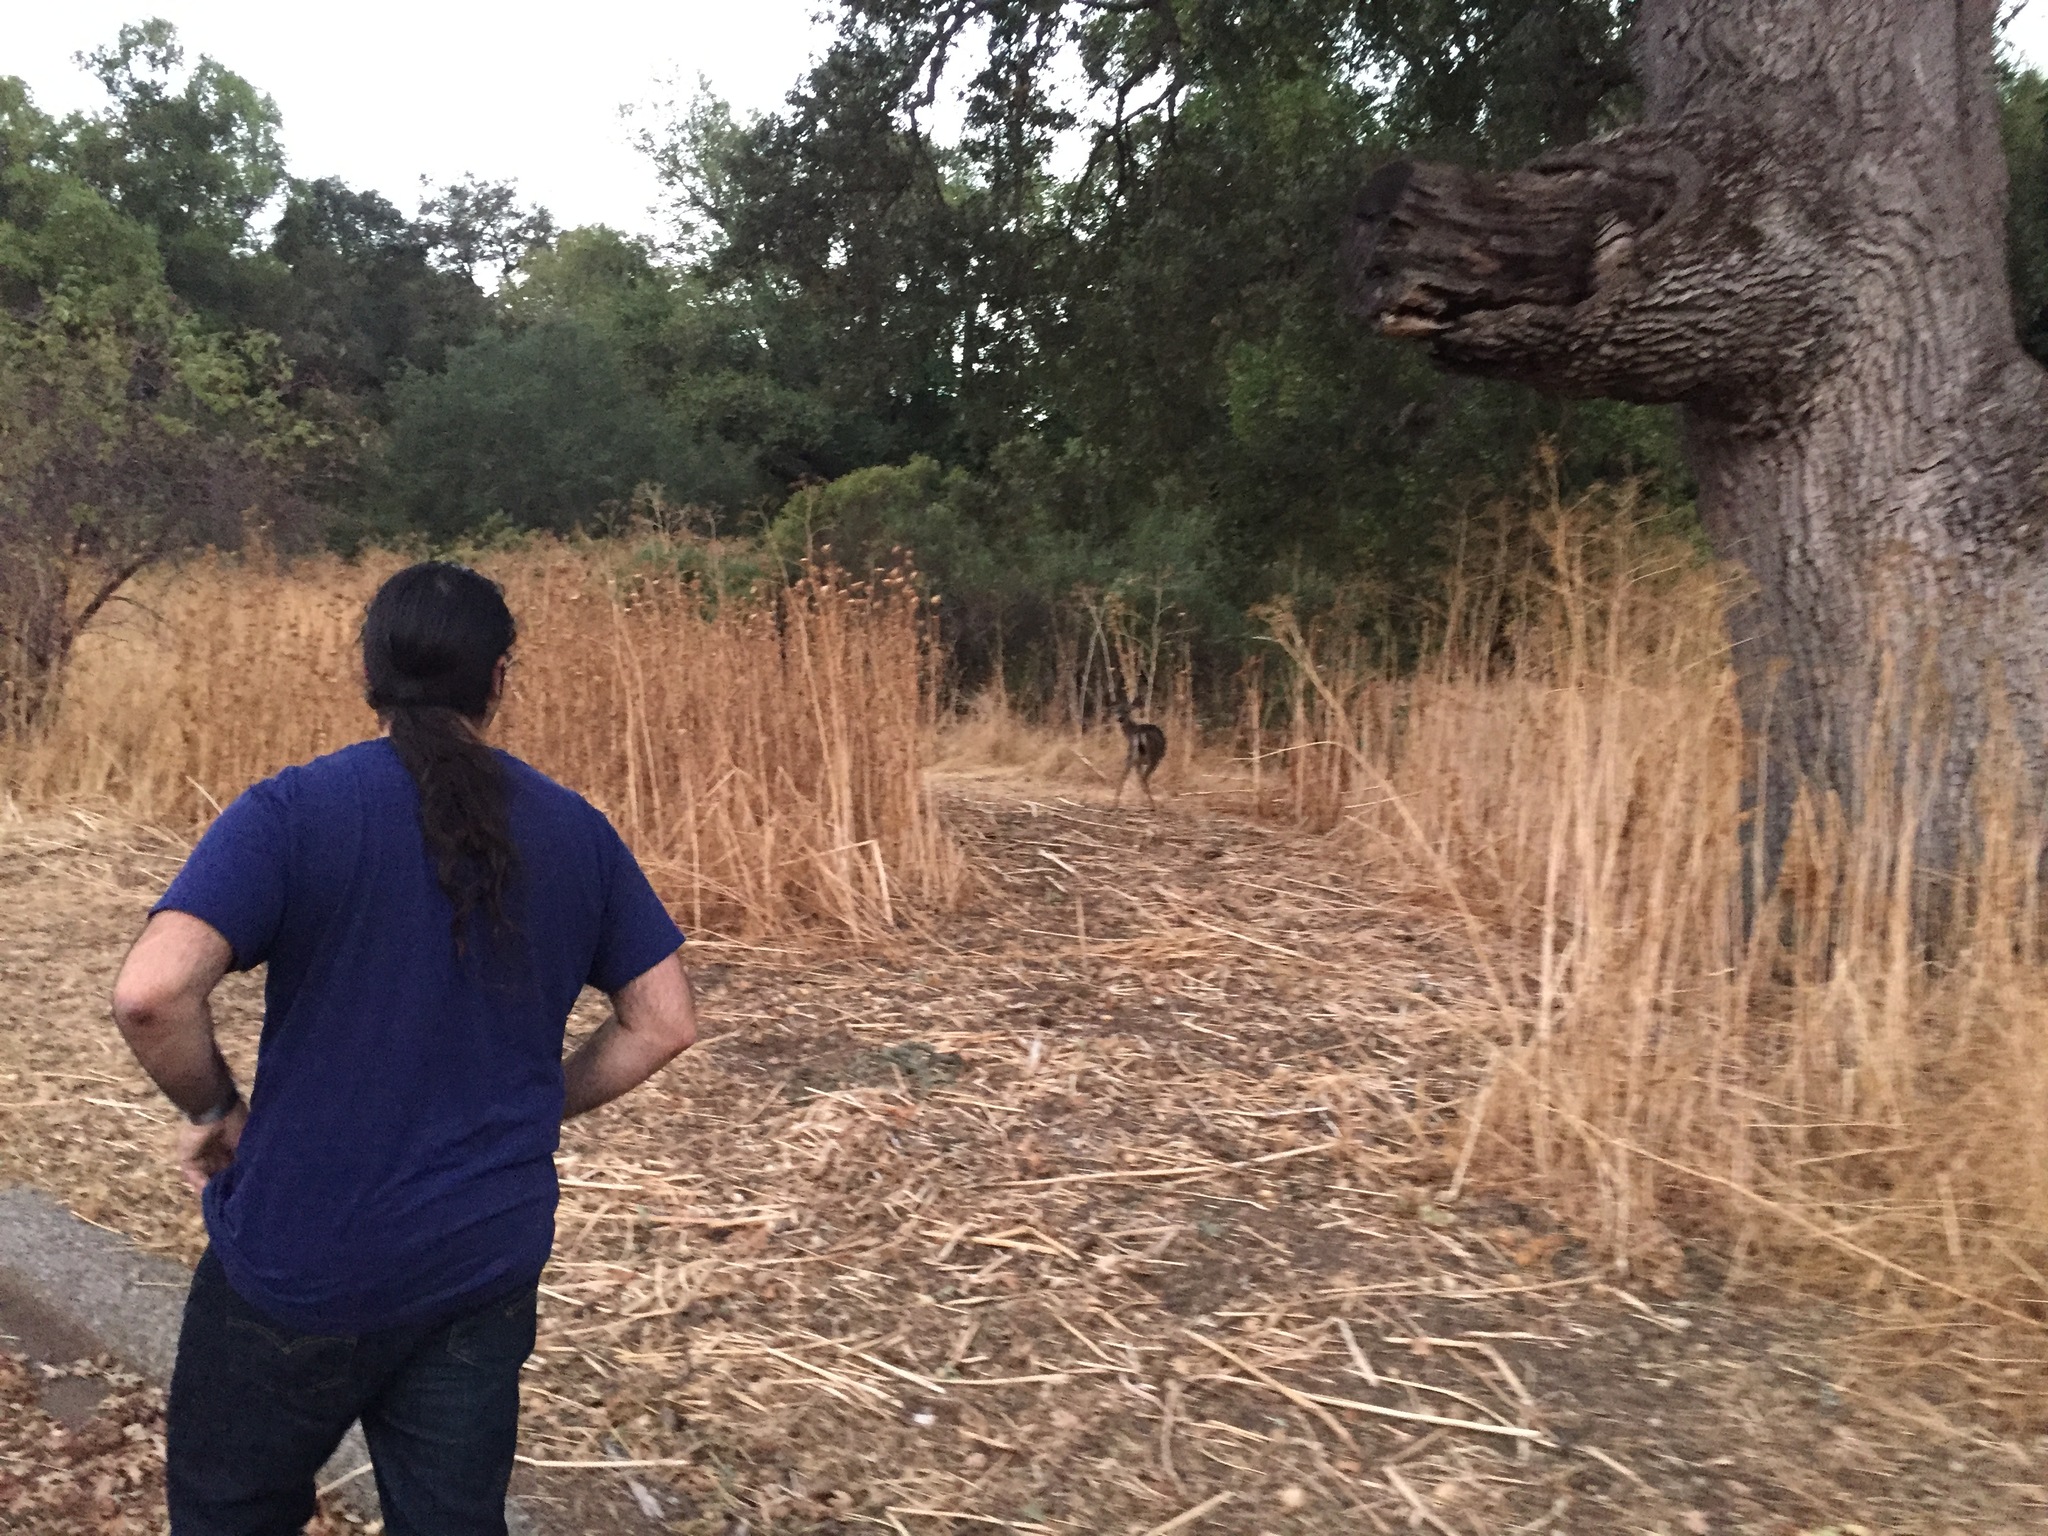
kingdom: Animalia
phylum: Chordata
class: Mammalia
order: Artiodactyla
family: Cervidae
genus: Odocoileus
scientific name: Odocoileus hemionus
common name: Mule deer
